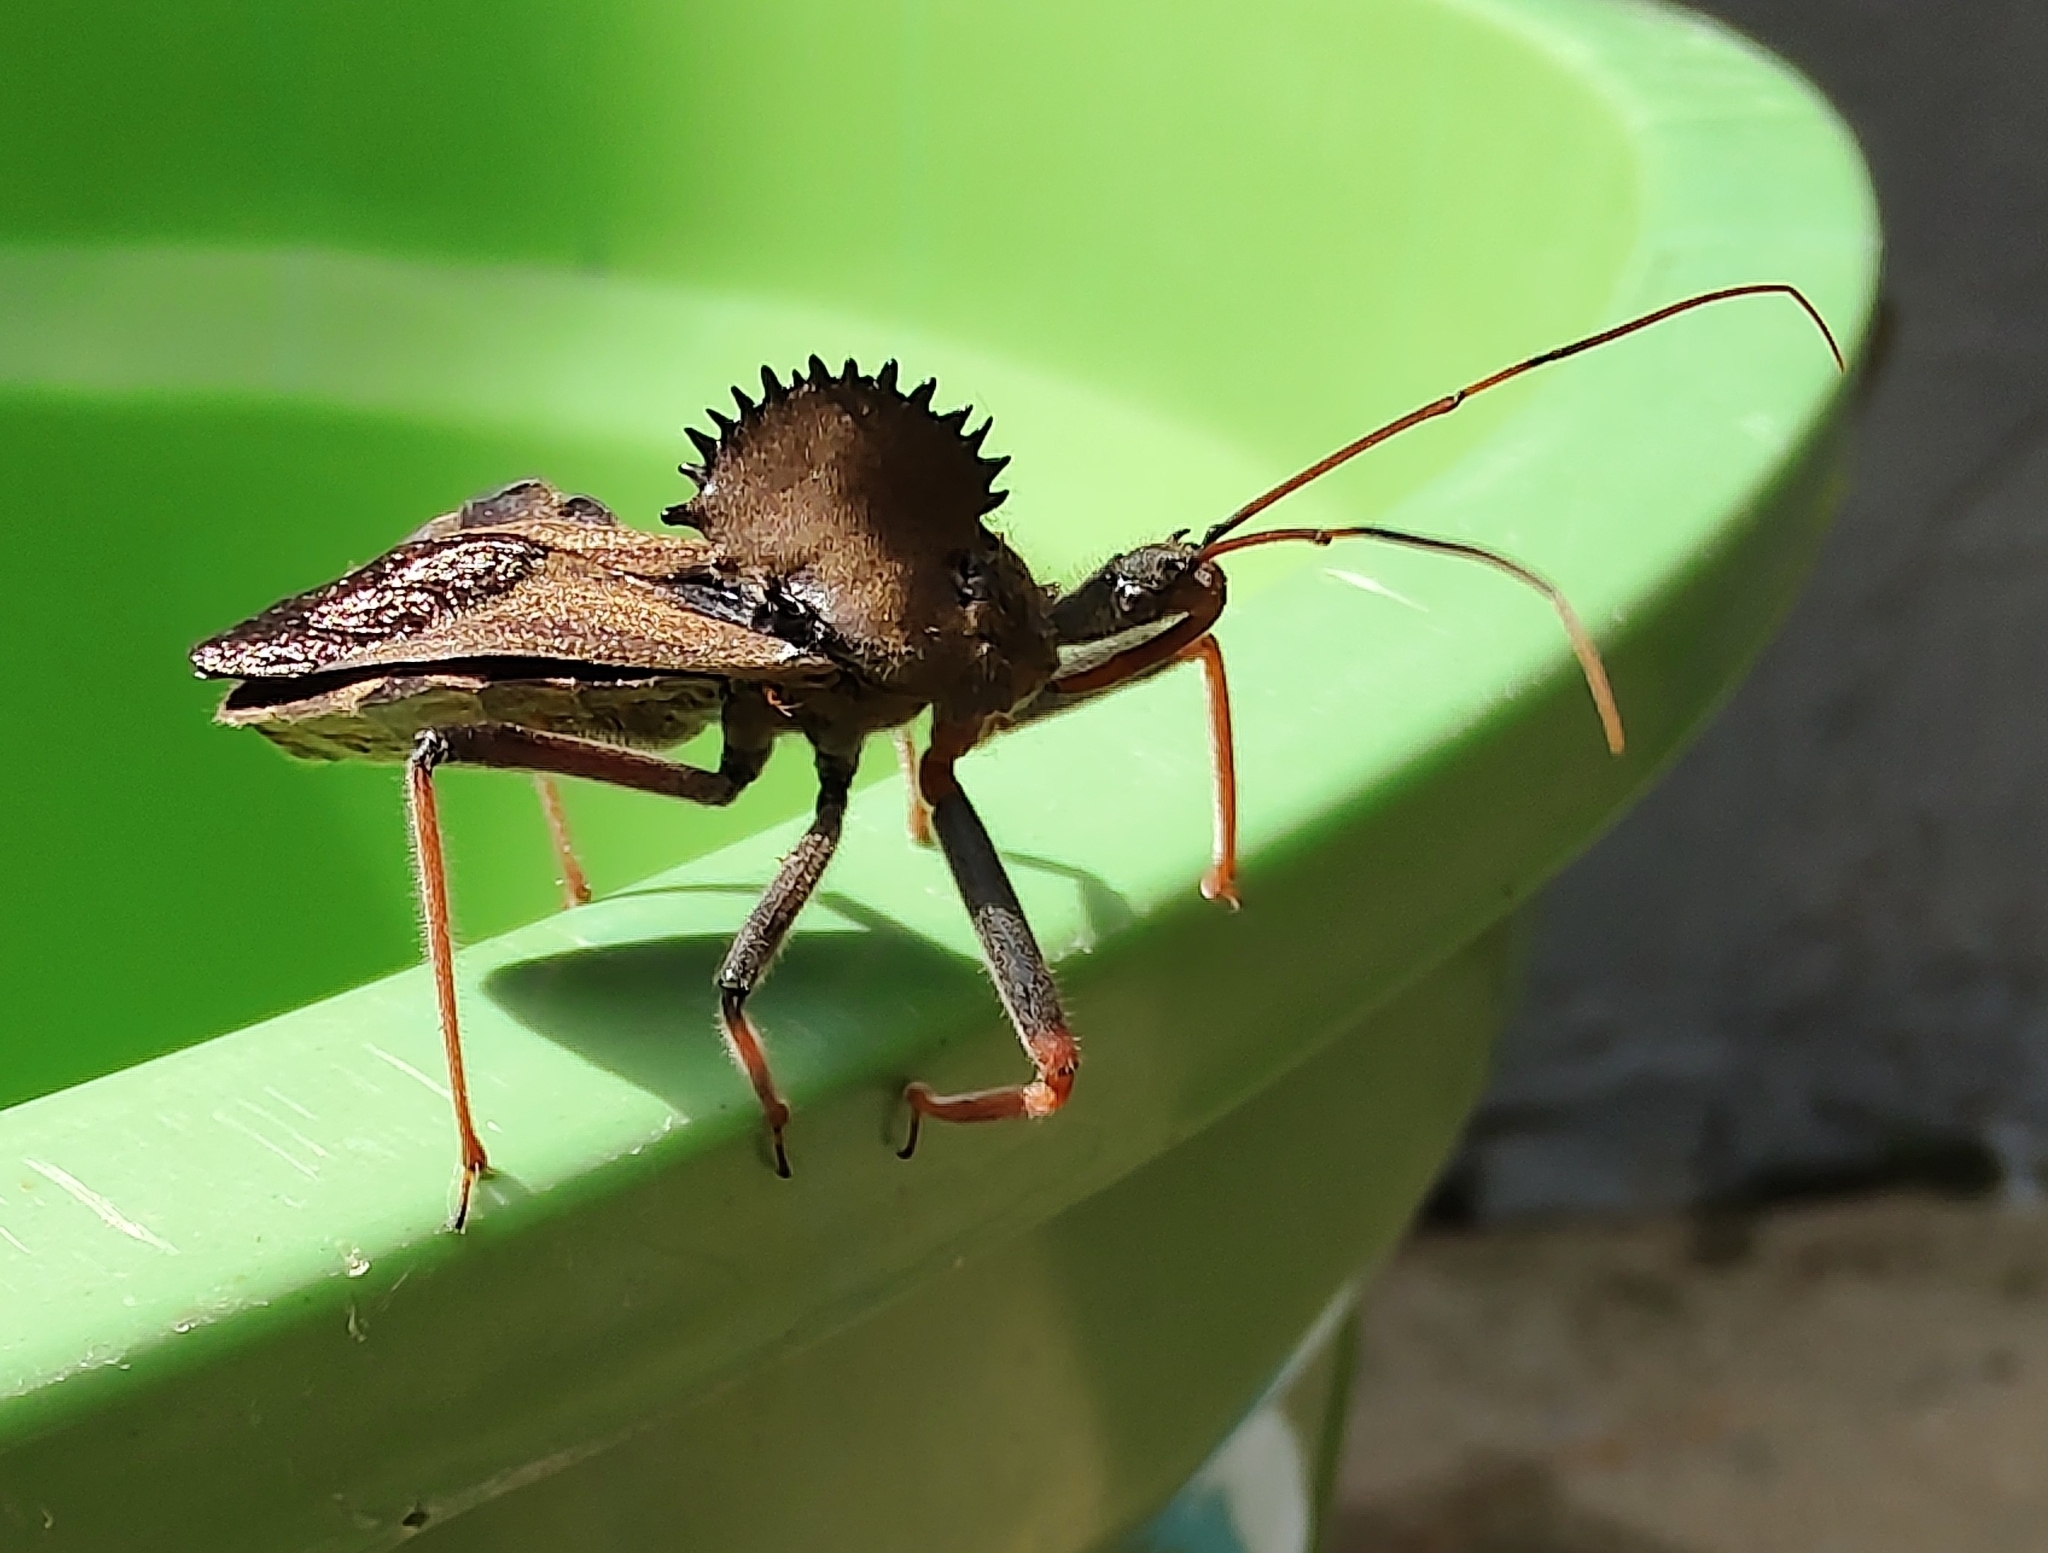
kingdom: Animalia
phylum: Arthropoda
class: Insecta
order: Hemiptera
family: Reduviidae
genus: Arilus
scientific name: Arilus carinatus
